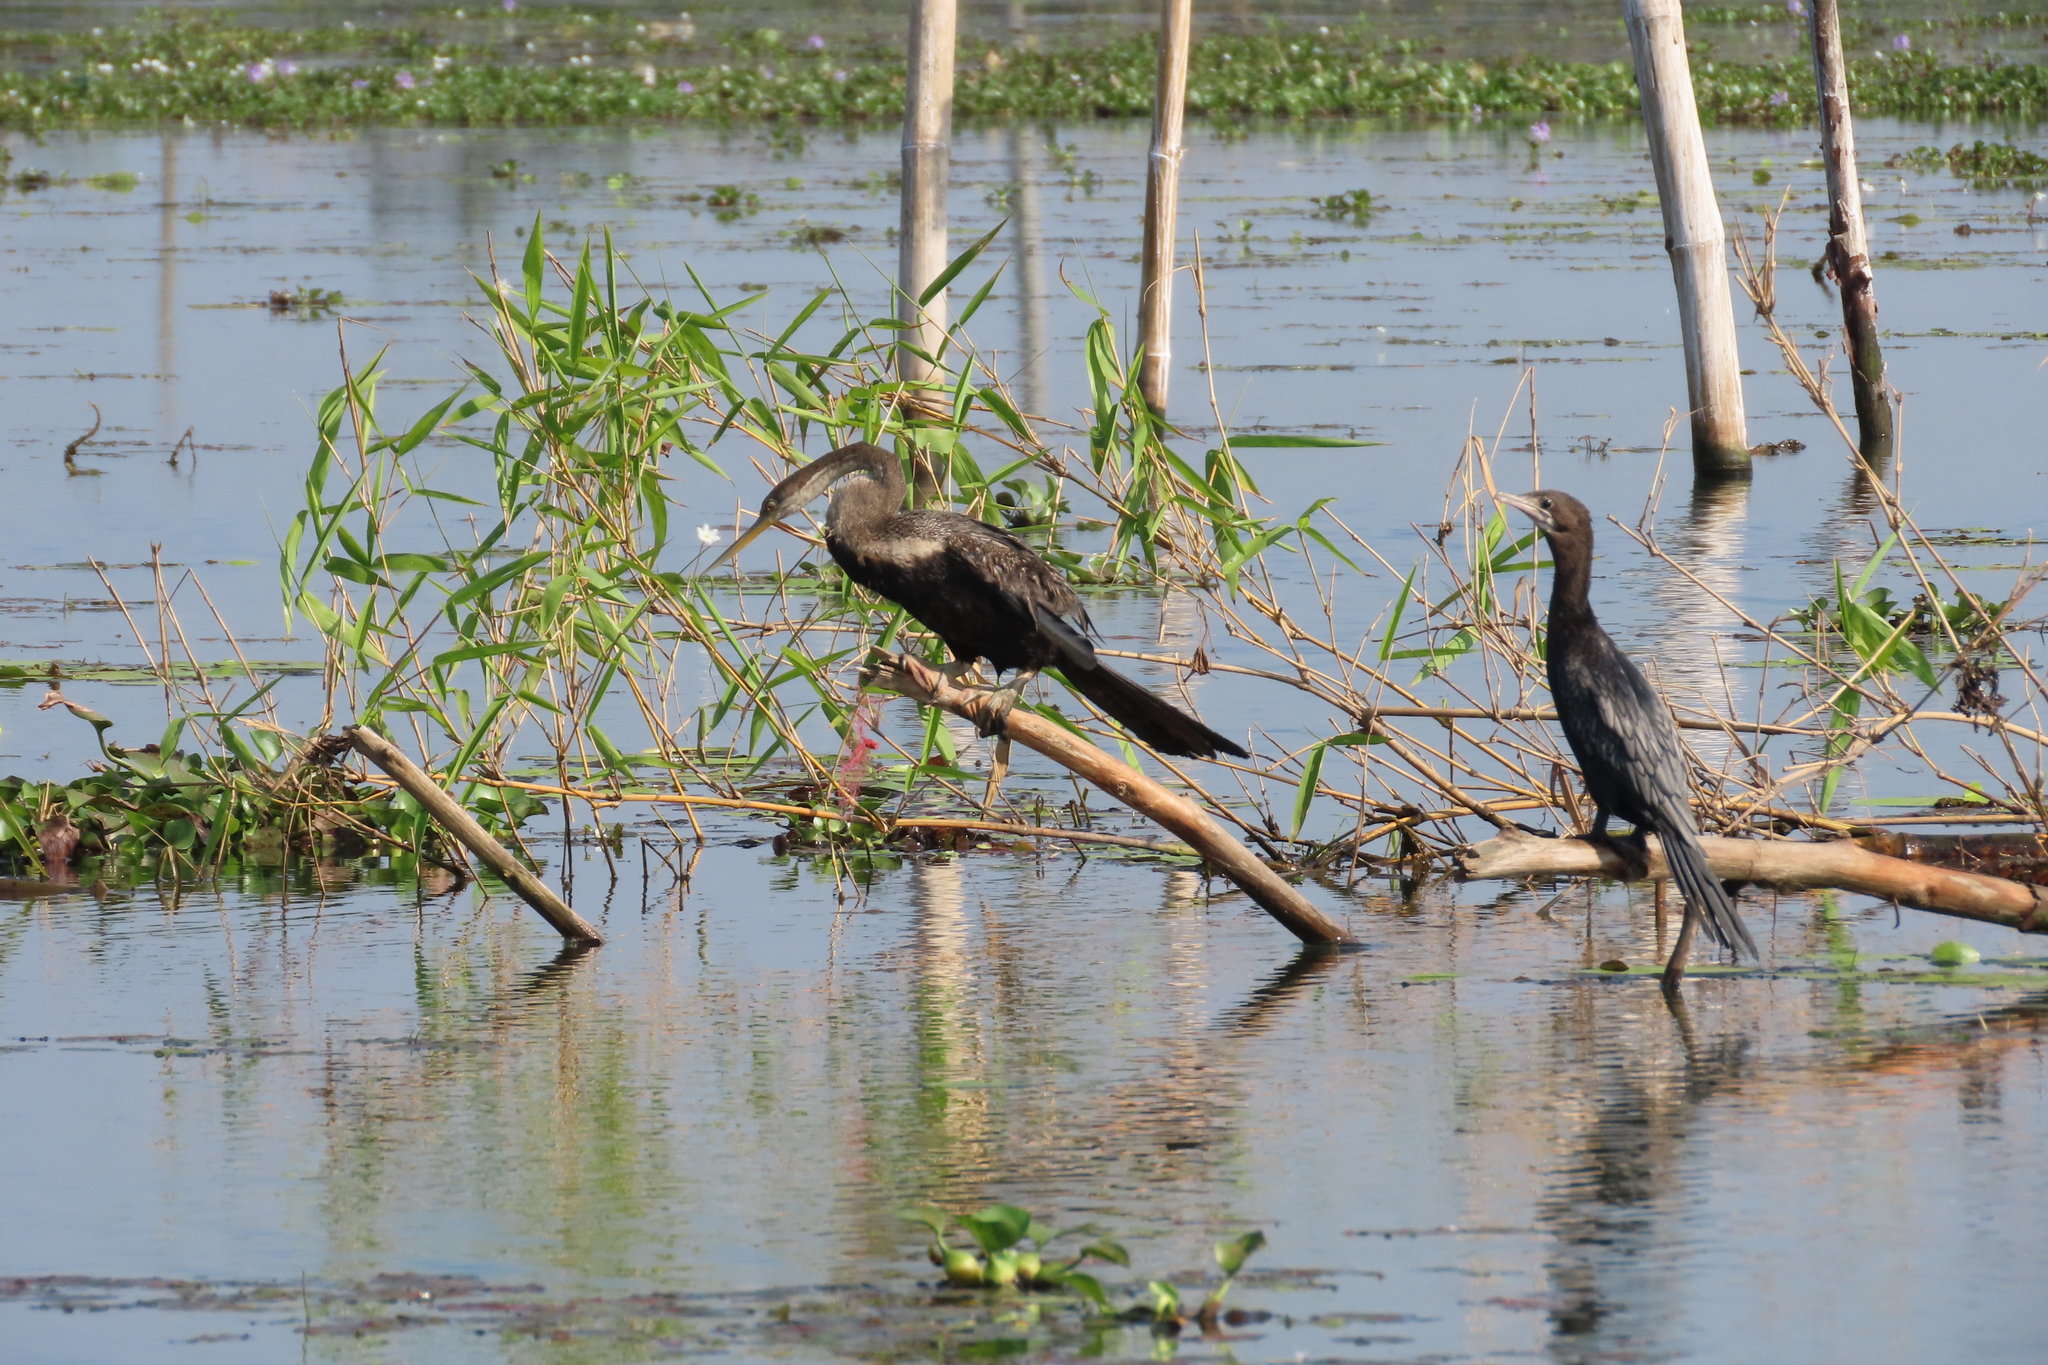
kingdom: Animalia
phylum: Chordata
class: Aves
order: Suliformes
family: Phalacrocoracidae
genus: Microcarbo
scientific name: Microcarbo niger
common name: Little cormorant
